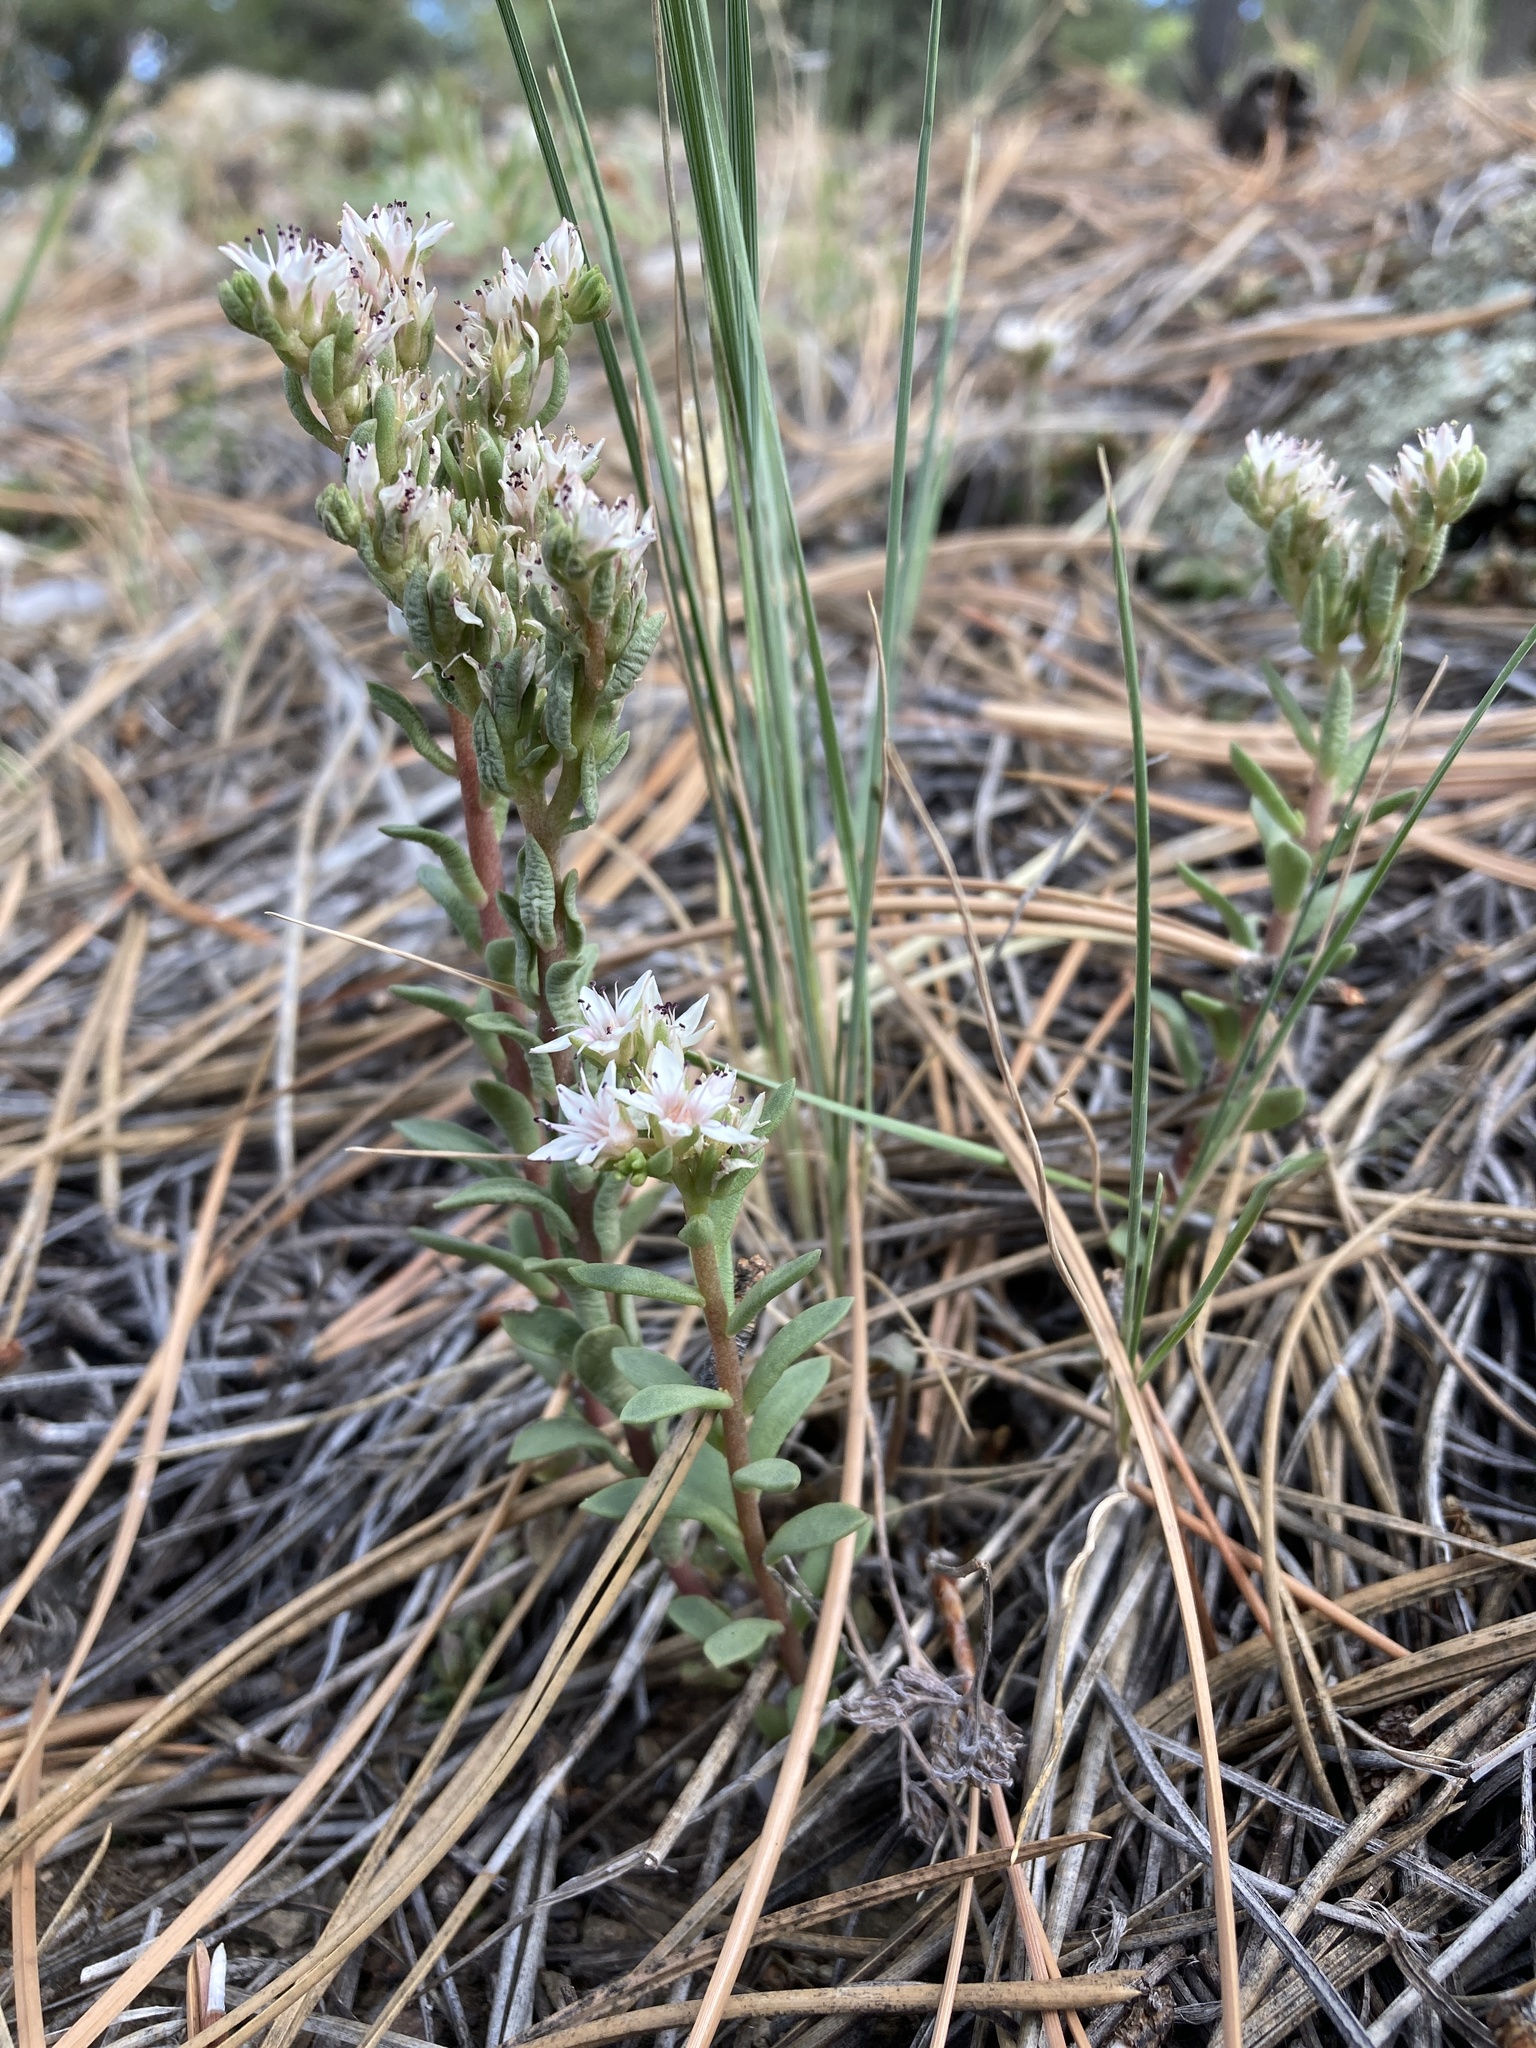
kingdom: Plantae
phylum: Tracheophyta
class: Magnoliopsida
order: Saxifragales
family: Crassulaceae
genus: Sedum
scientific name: Sedum cockerellii
